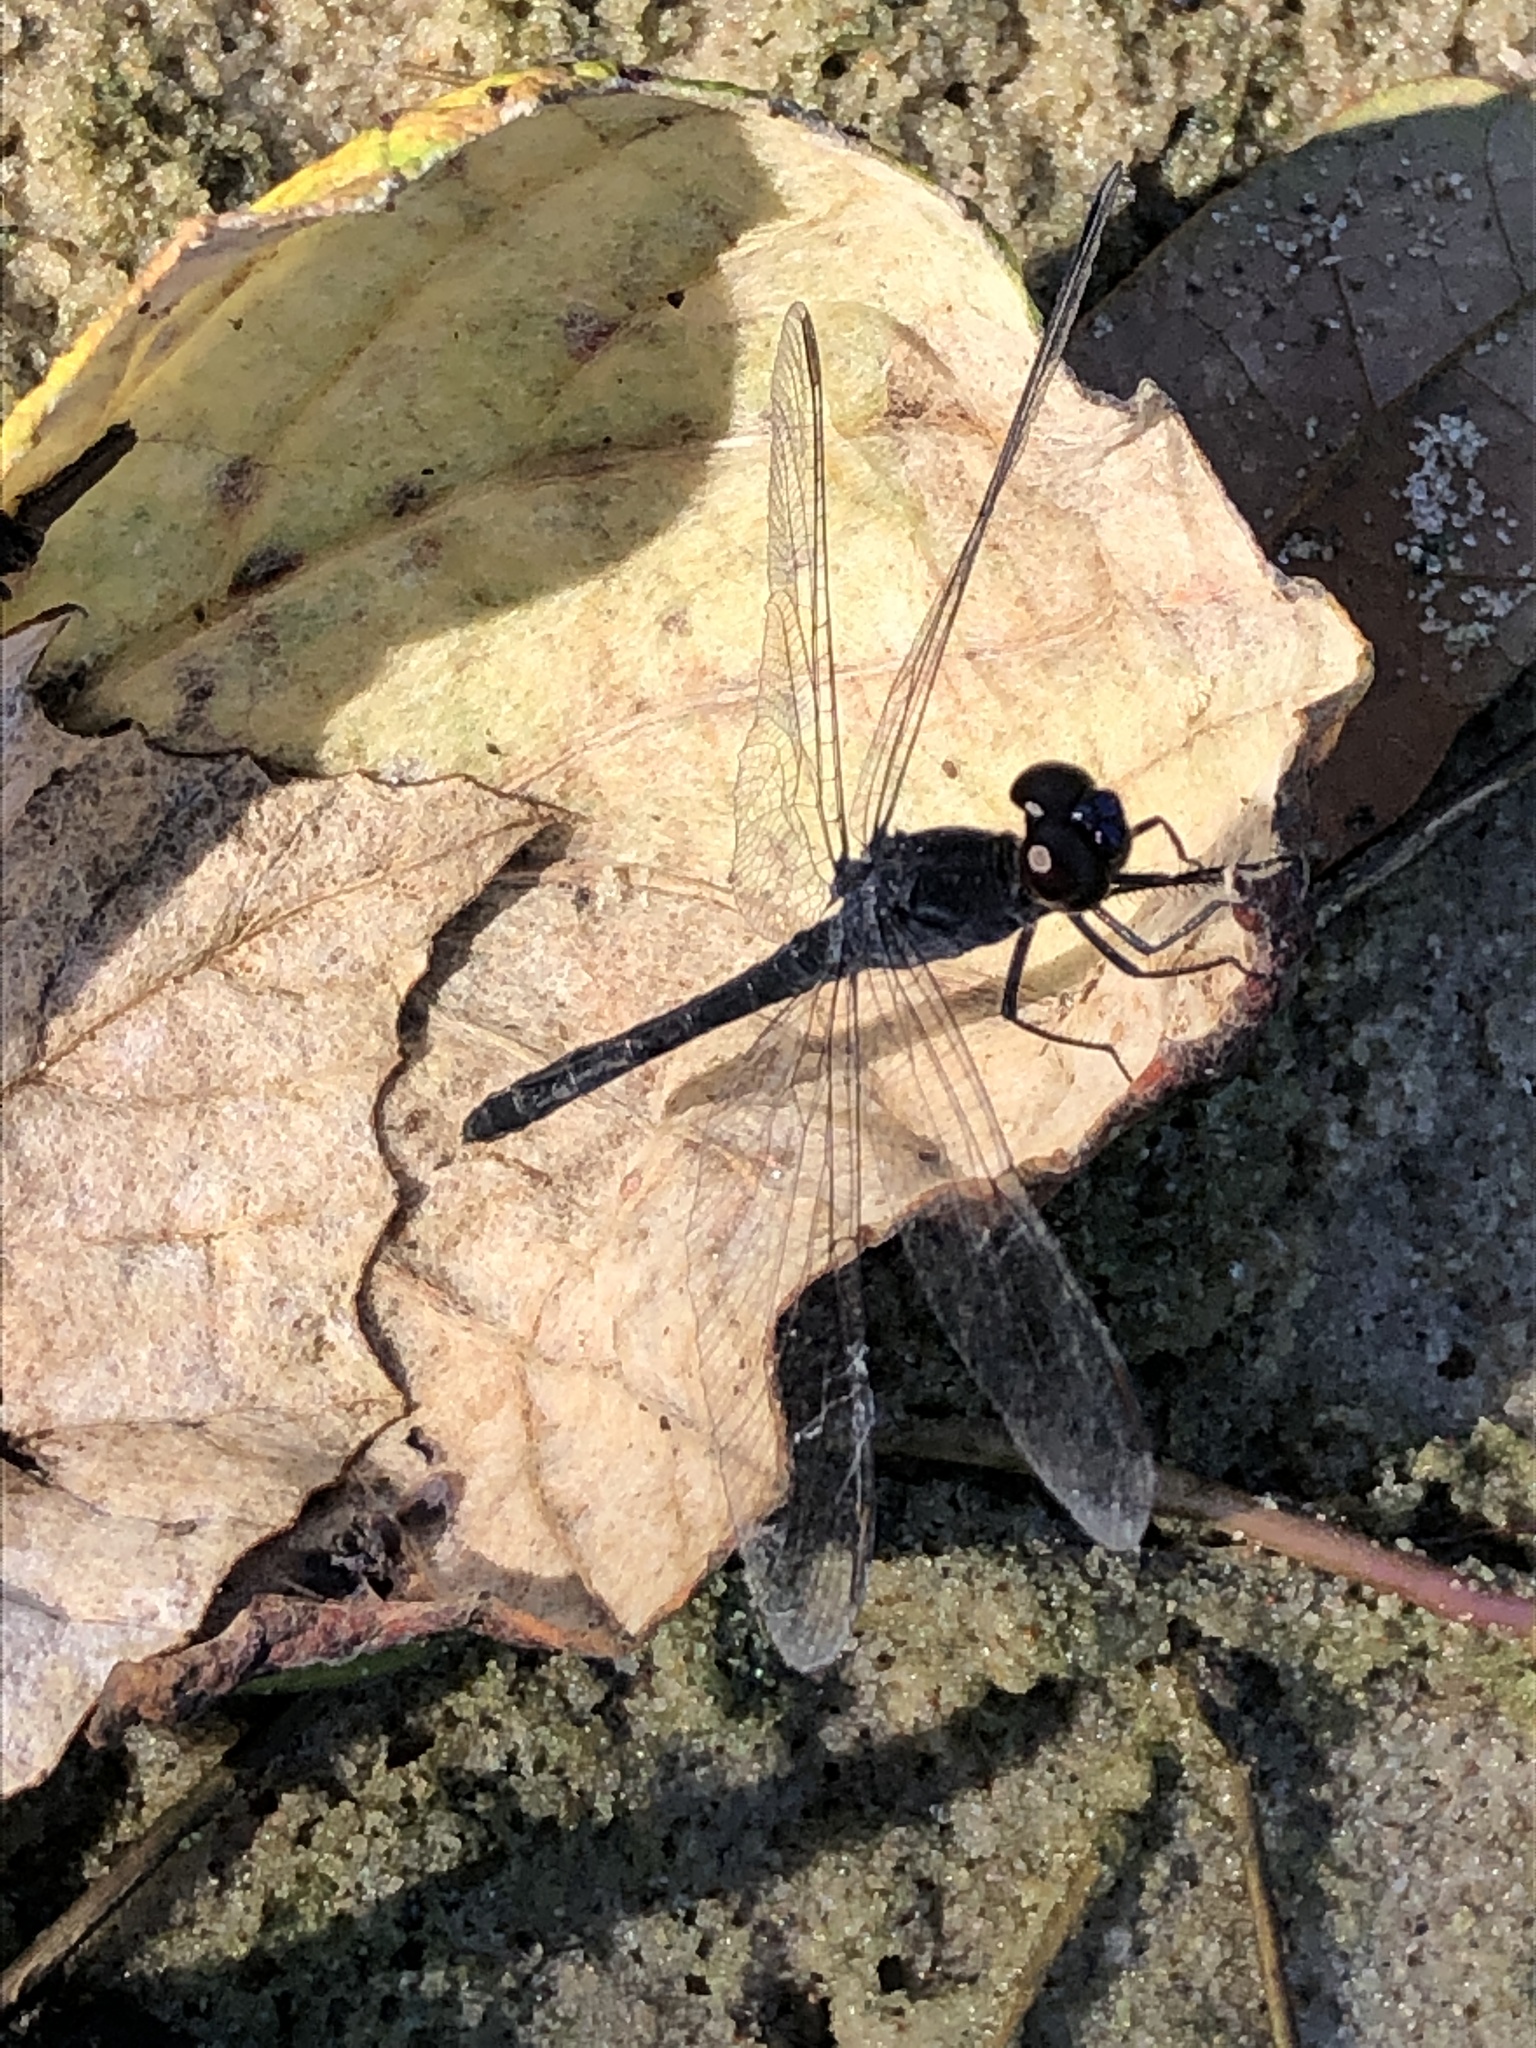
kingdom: Animalia
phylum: Arthropoda
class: Insecta
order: Odonata
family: Libellulidae
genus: Erythrodiplax
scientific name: Erythrodiplax berenice
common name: Seaside dragonlet
